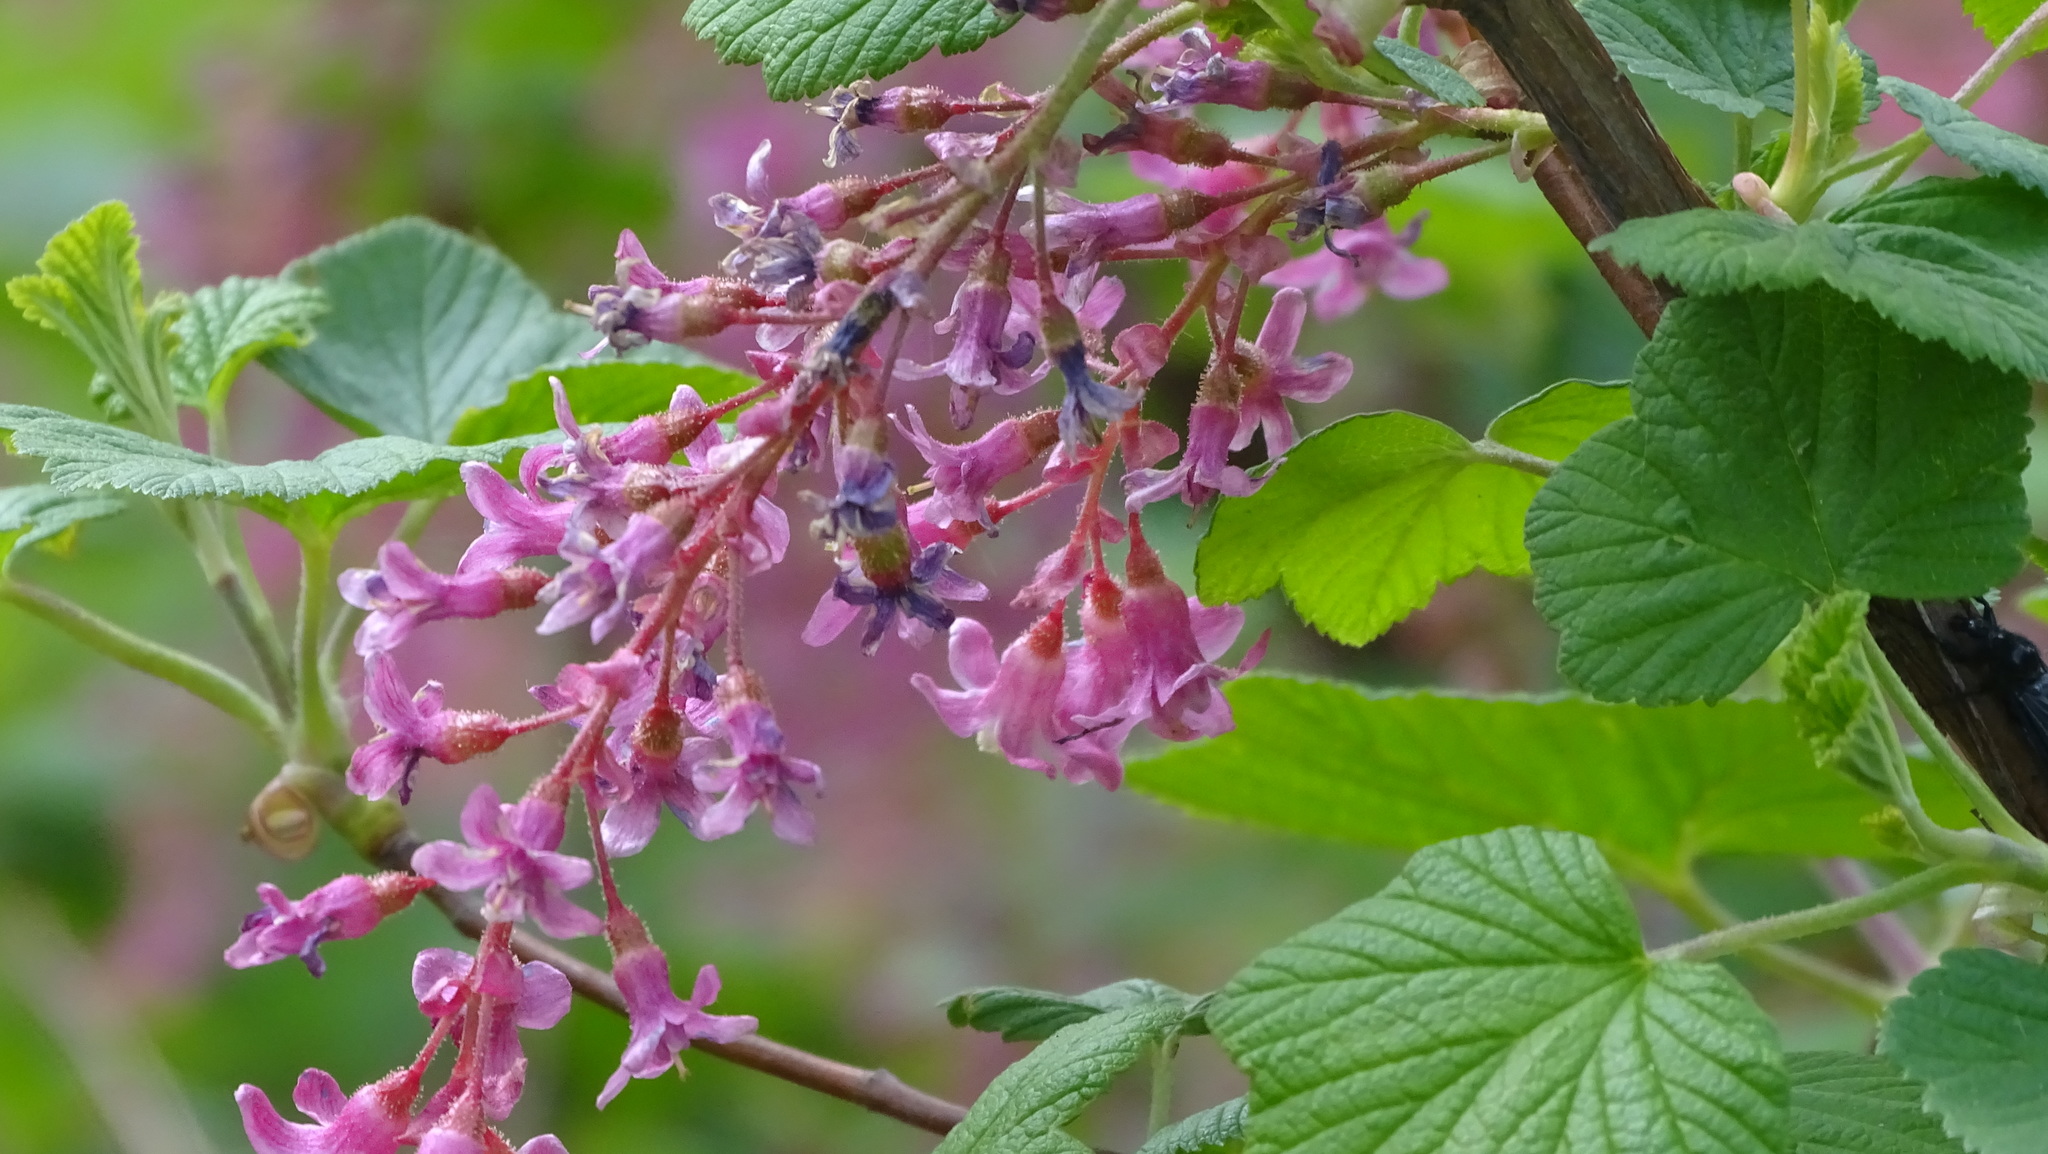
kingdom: Plantae
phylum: Tracheophyta
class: Magnoliopsida
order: Saxifragales
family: Grossulariaceae
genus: Ribes
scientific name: Ribes sanguineum
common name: Flowering currant
